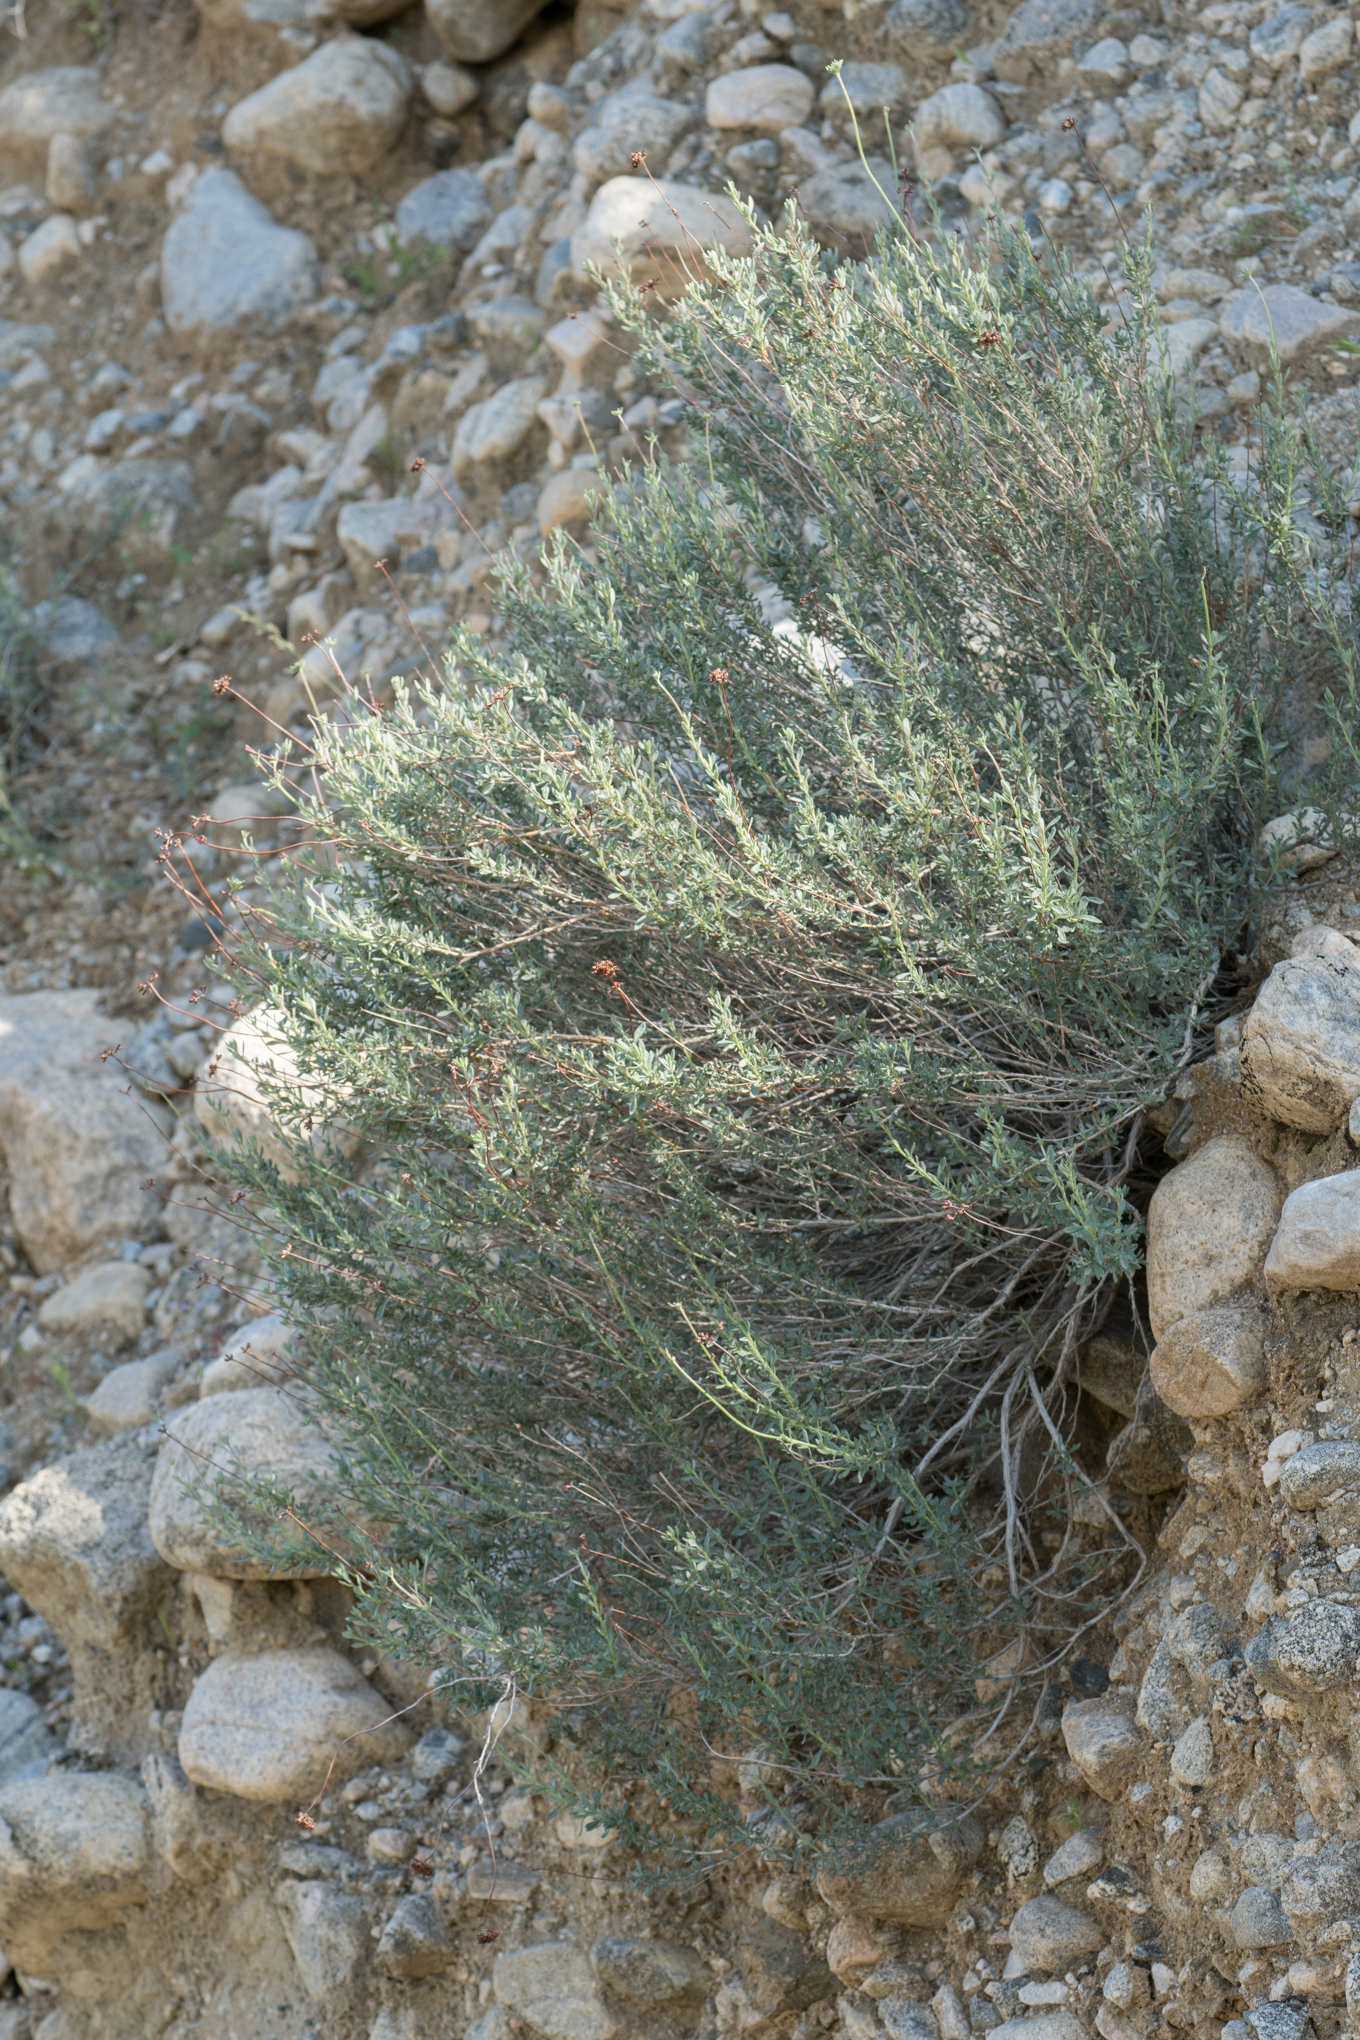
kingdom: Plantae
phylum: Tracheophyta
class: Magnoliopsida
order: Caryophyllales
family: Polygonaceae
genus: Eriogonum
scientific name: Eriogonum fasciculatum
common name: California wild buckwheat
